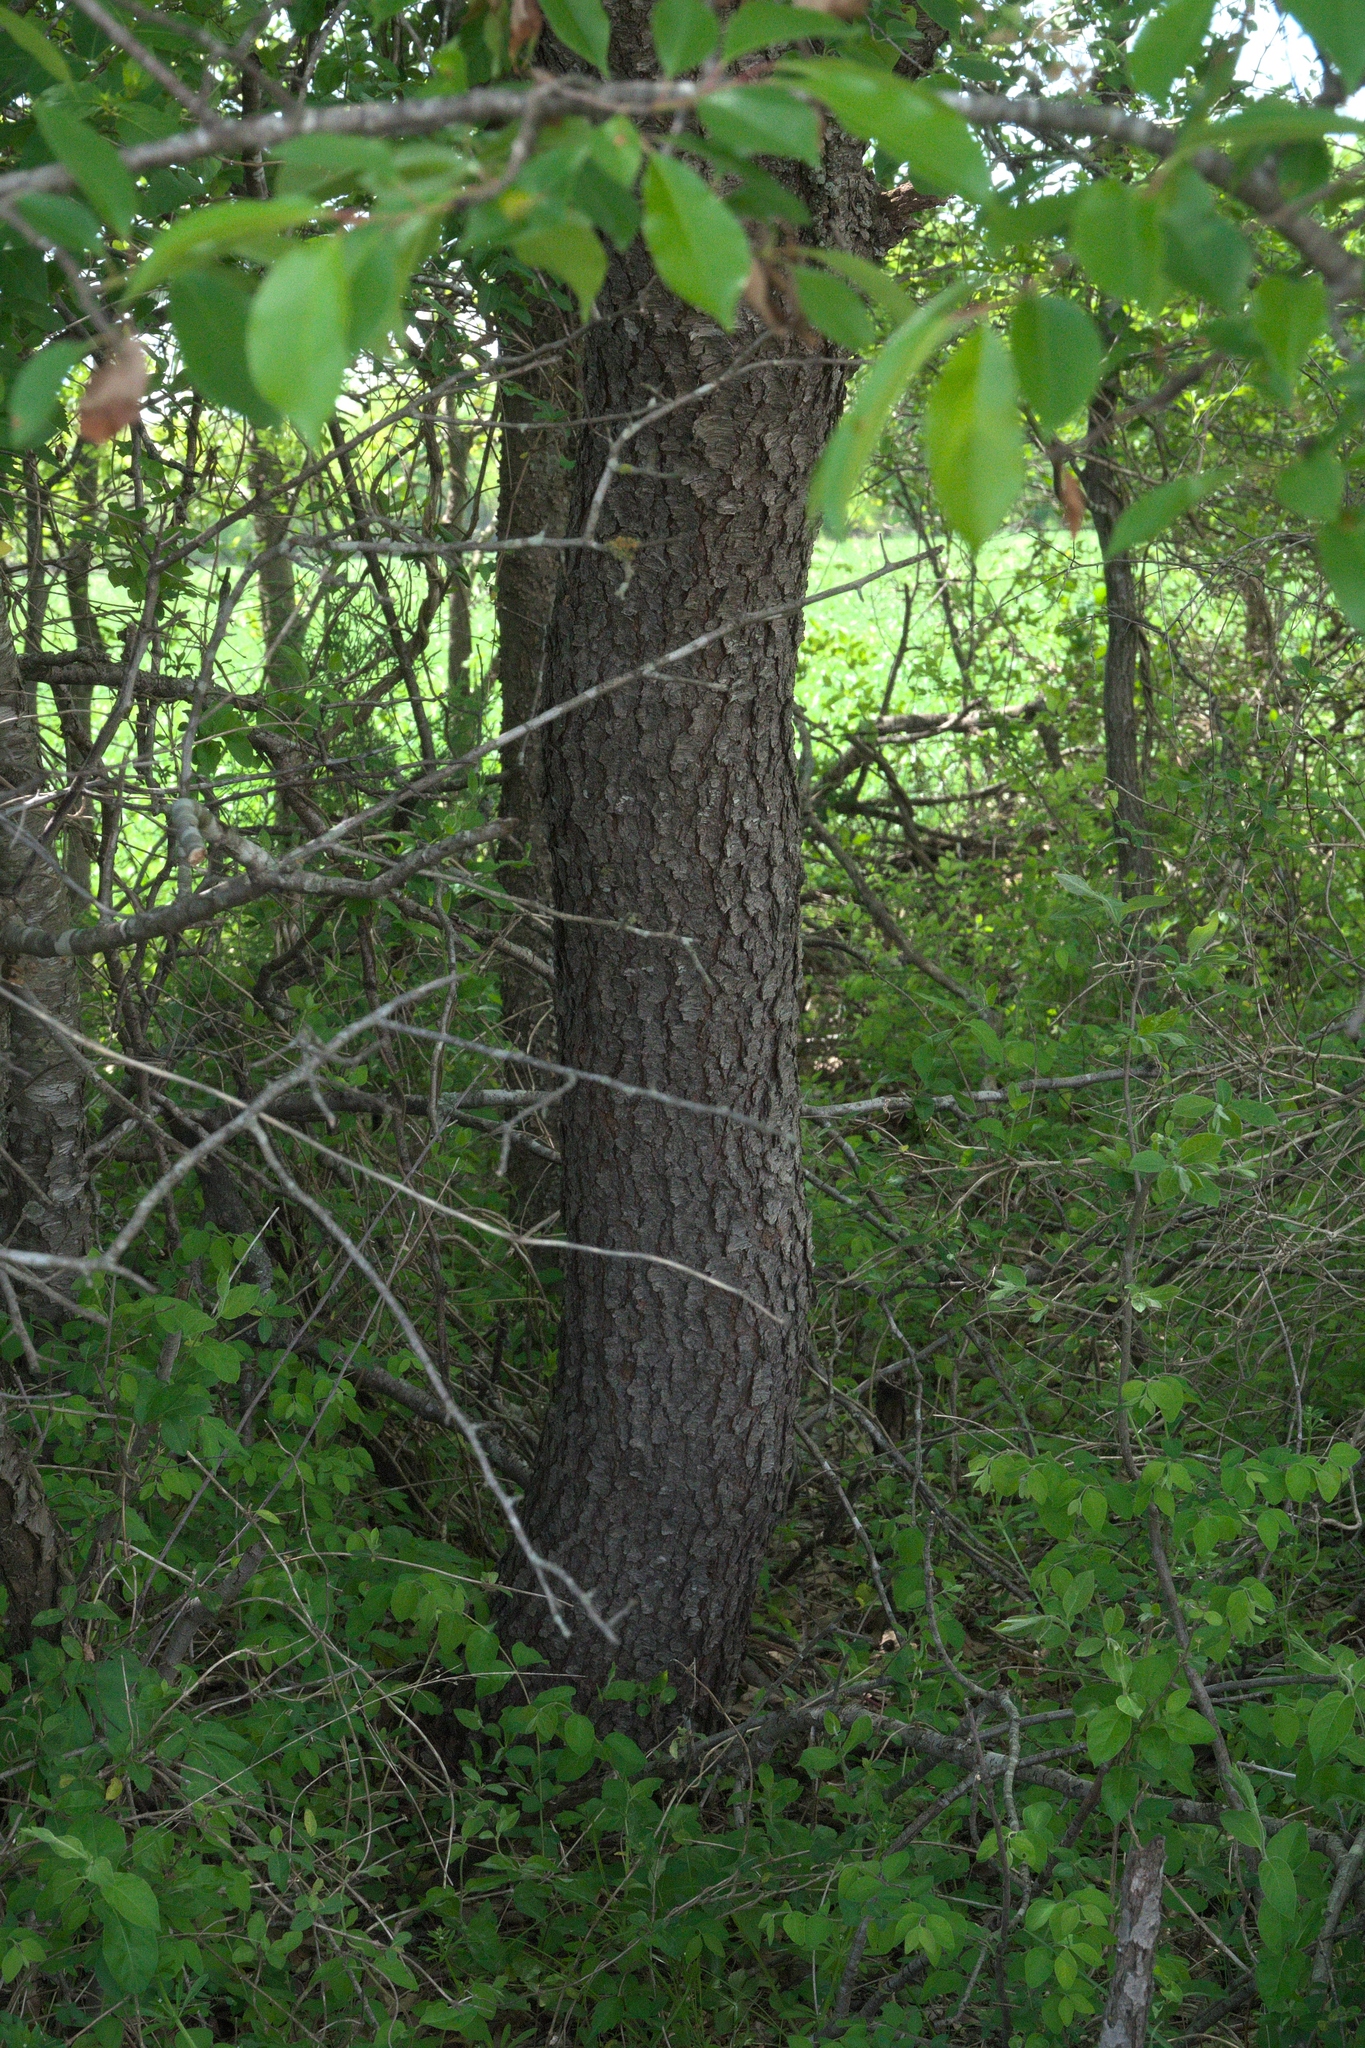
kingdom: Plantae
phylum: Tracheophyta
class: Magnoliopsida
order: Rosales
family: Rosaceae
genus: Prunus
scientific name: Prunus serotina
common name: Black cherry
